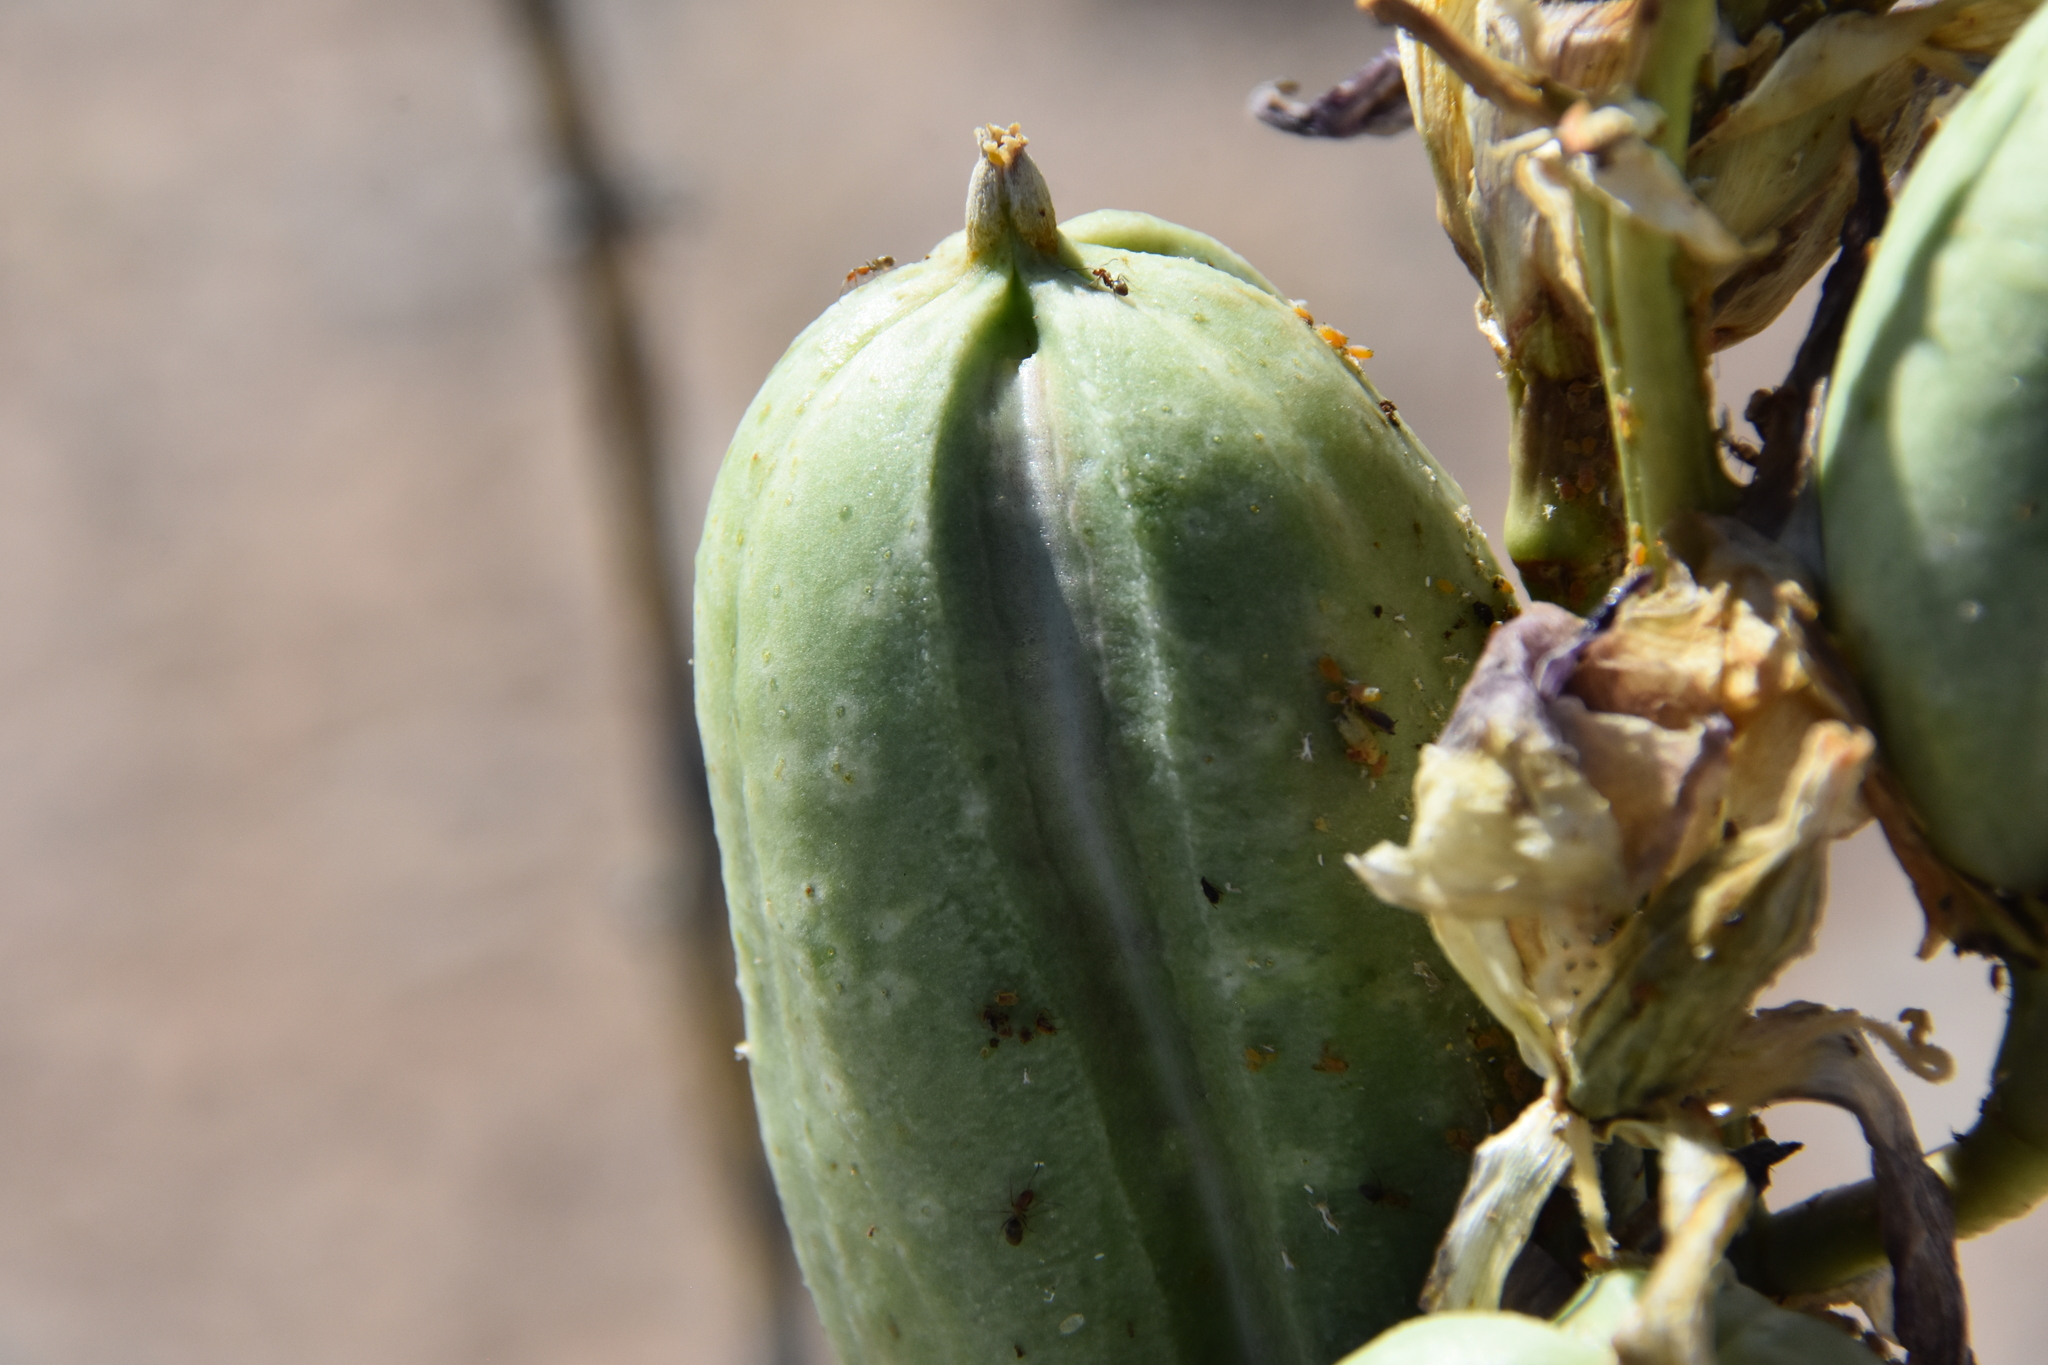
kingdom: Animalia
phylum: Arthropoda
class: Insecta
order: Hymenoptera
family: Formicidae
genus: Forelius
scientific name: Forelius pruinosus
